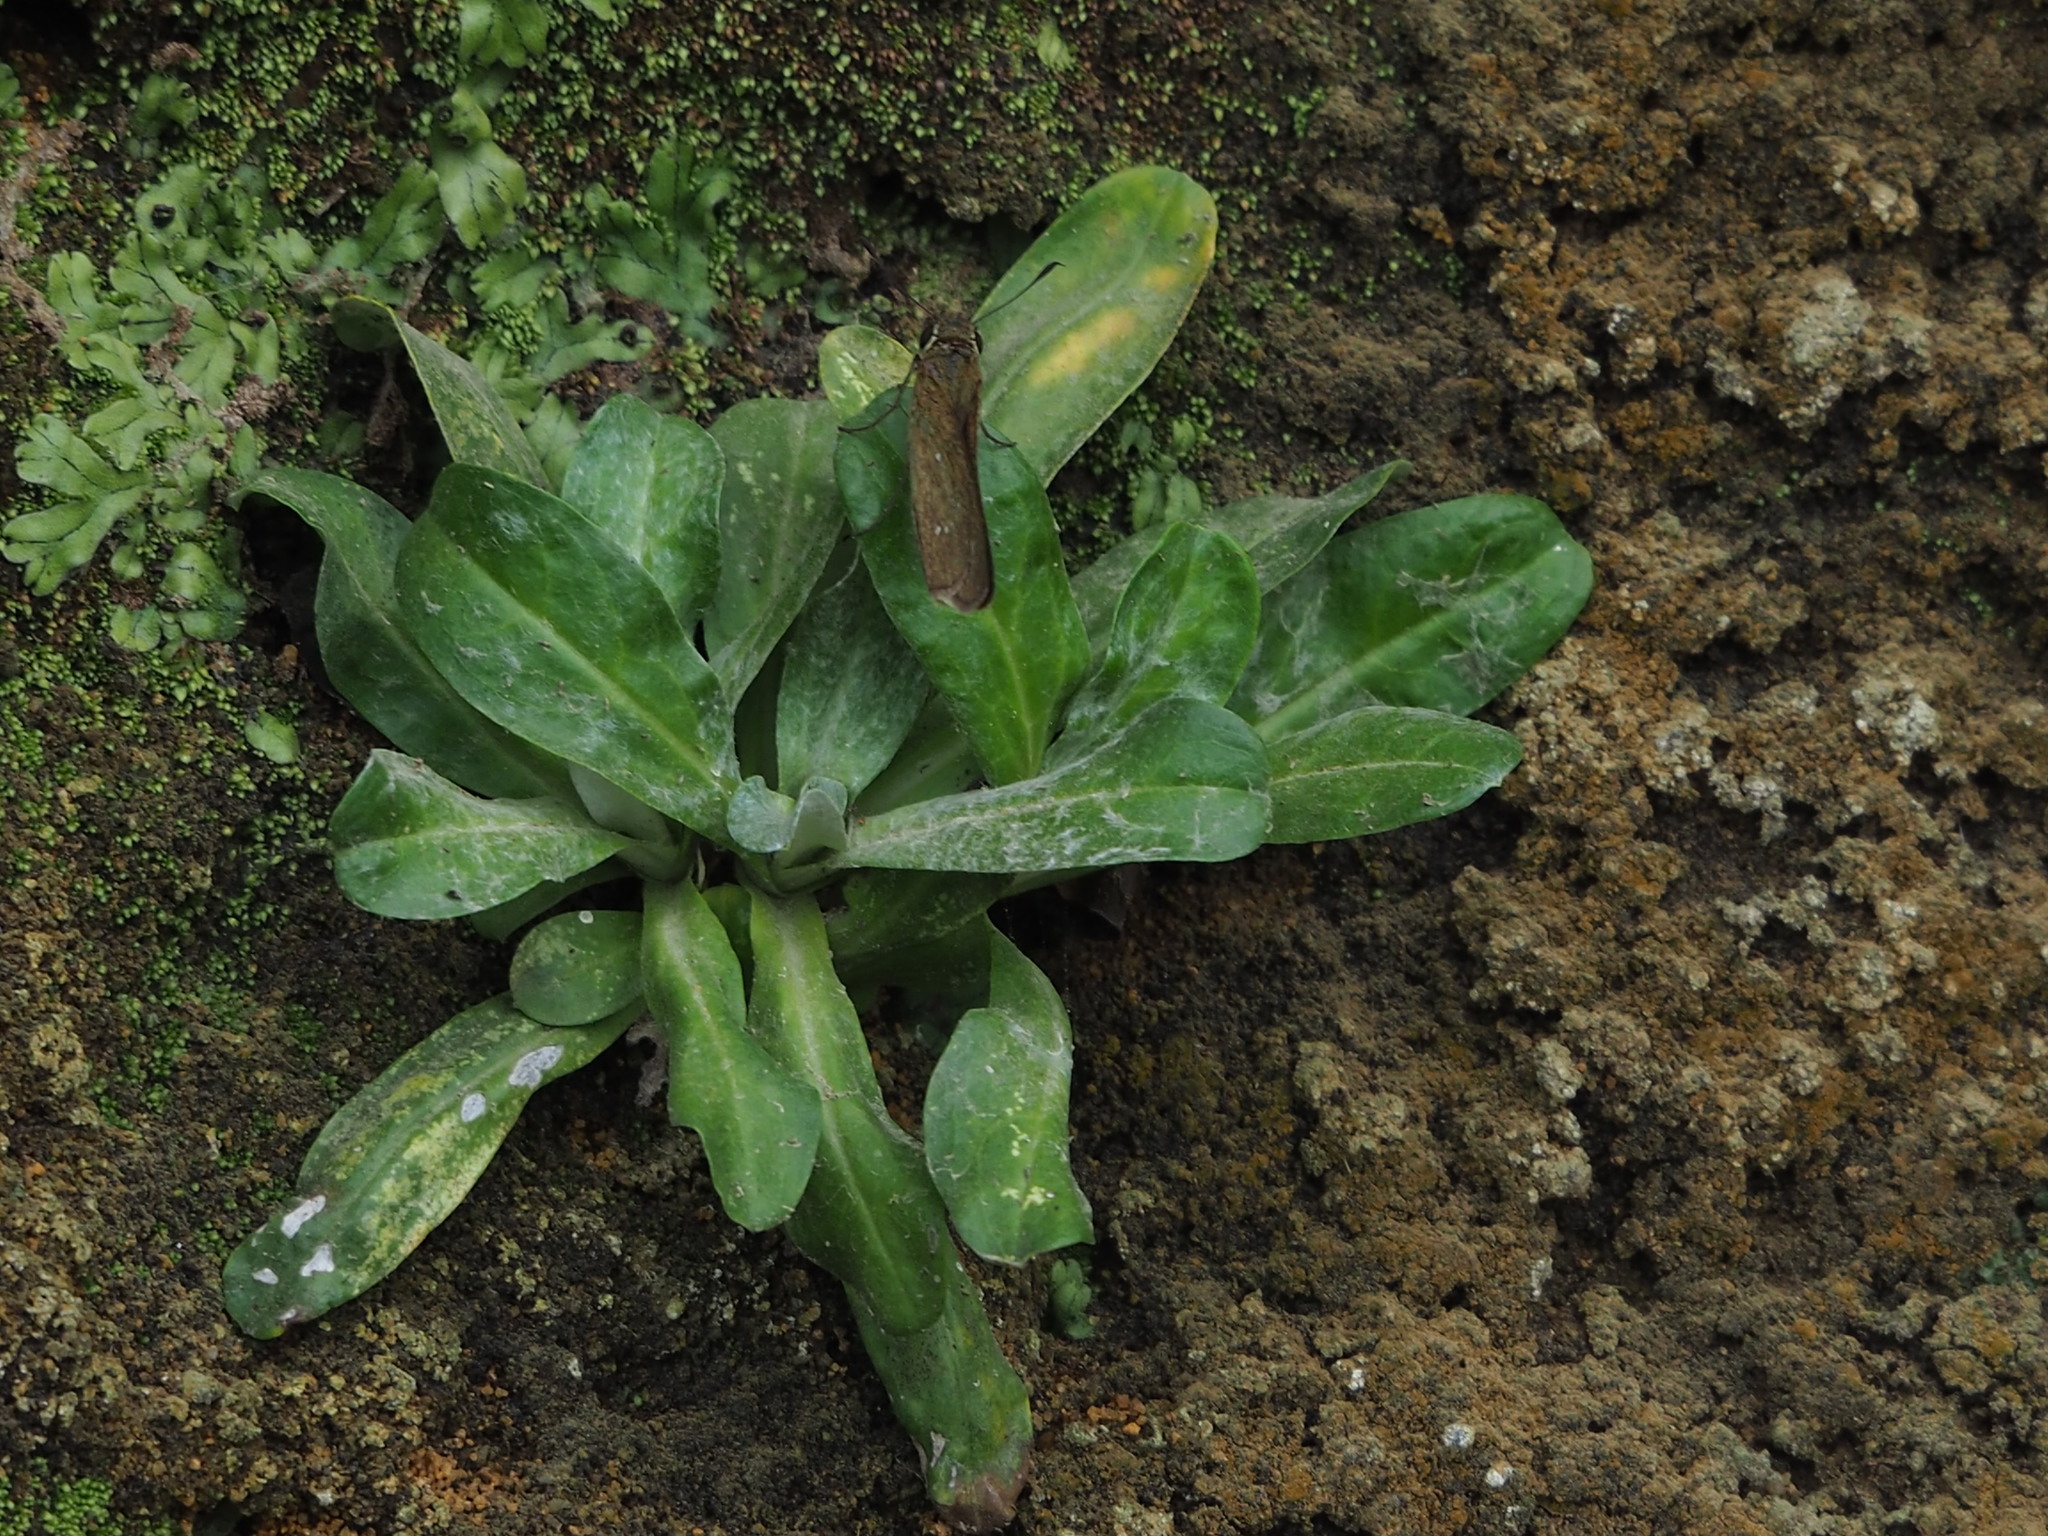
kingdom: Plantae
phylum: Tracheophyta
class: Magnoliopsida
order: Asterales
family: Asteraceae
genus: Gamochaeta
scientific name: Gamochaeta americana
